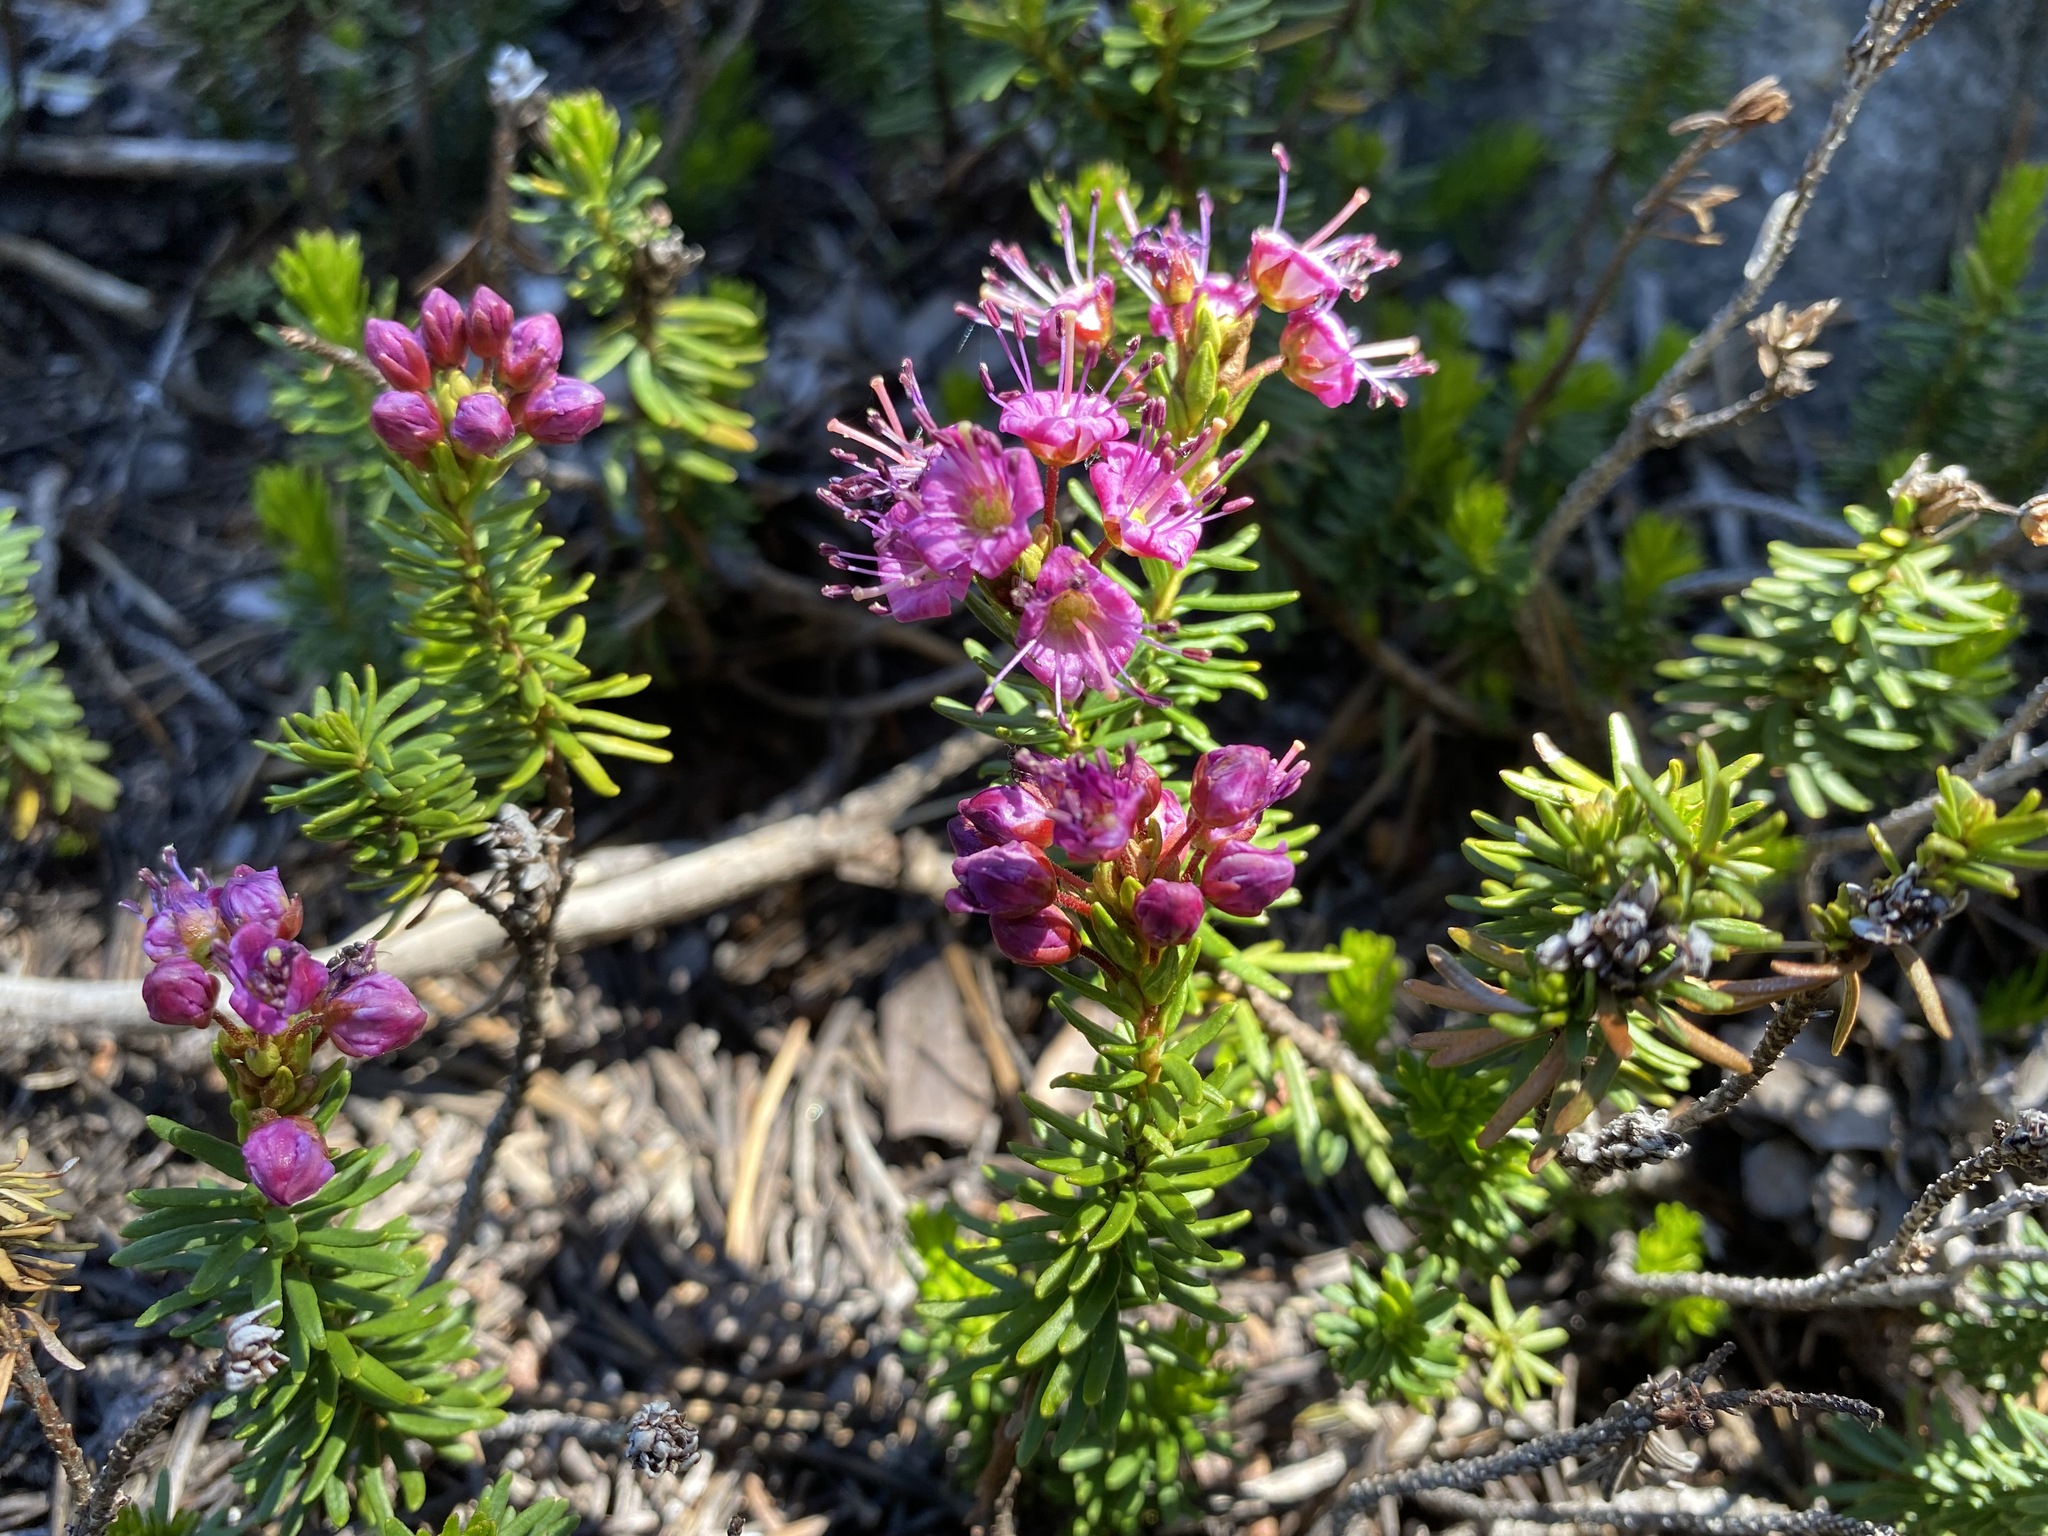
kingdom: Plantae
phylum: Tracheophyta
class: Magnoliopsida
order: Ericales
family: Ericaceae
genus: Phyllodoce
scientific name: Phyllodoce breweri
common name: Brewer's mountain-heather
